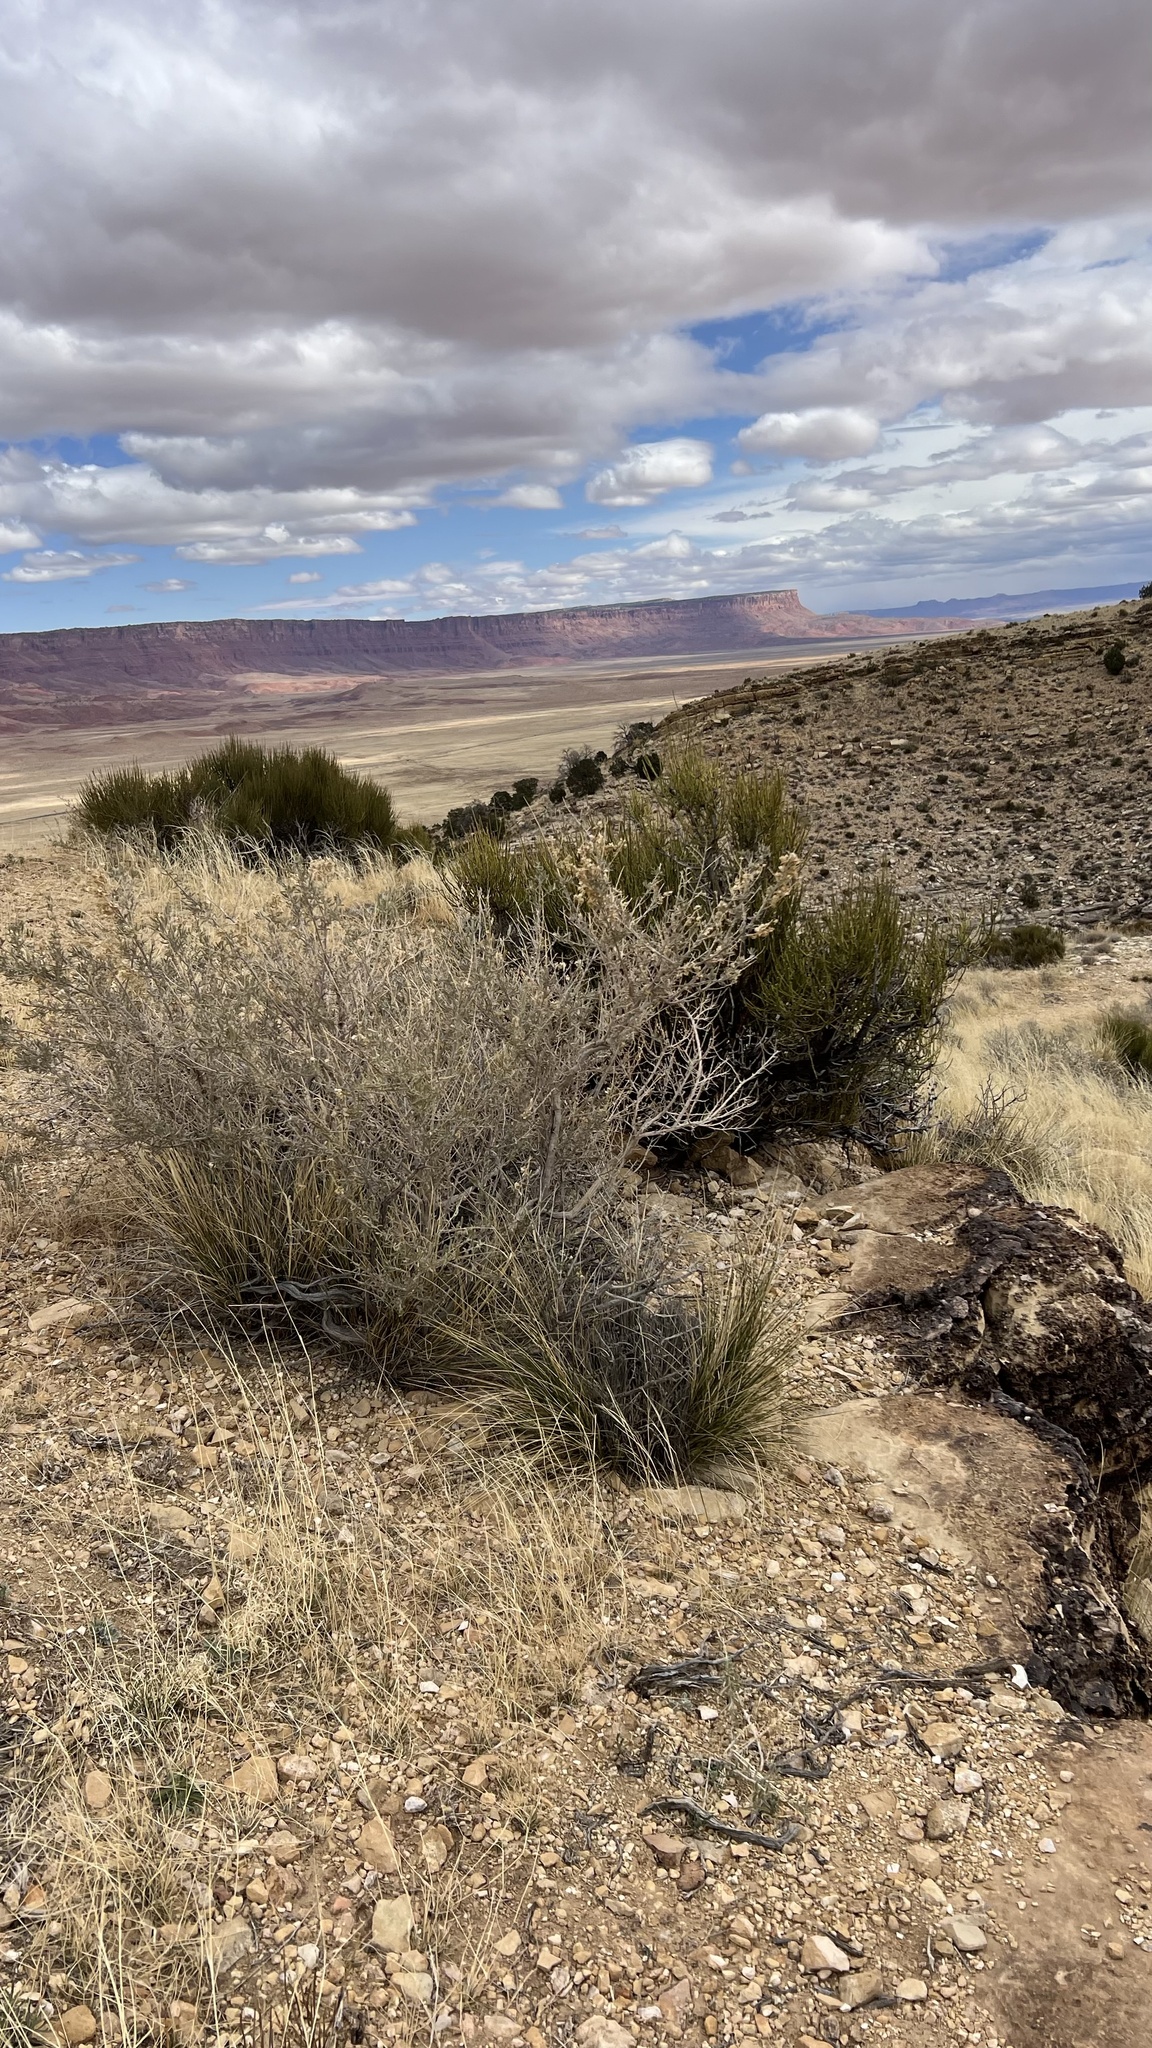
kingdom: Plantae
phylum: Tracheophyta
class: Magnoliopsida
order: Caryophyllales
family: Amaranthaceae
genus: Atriplex
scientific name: Atriplex canescens
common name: Four-wing saltbush
